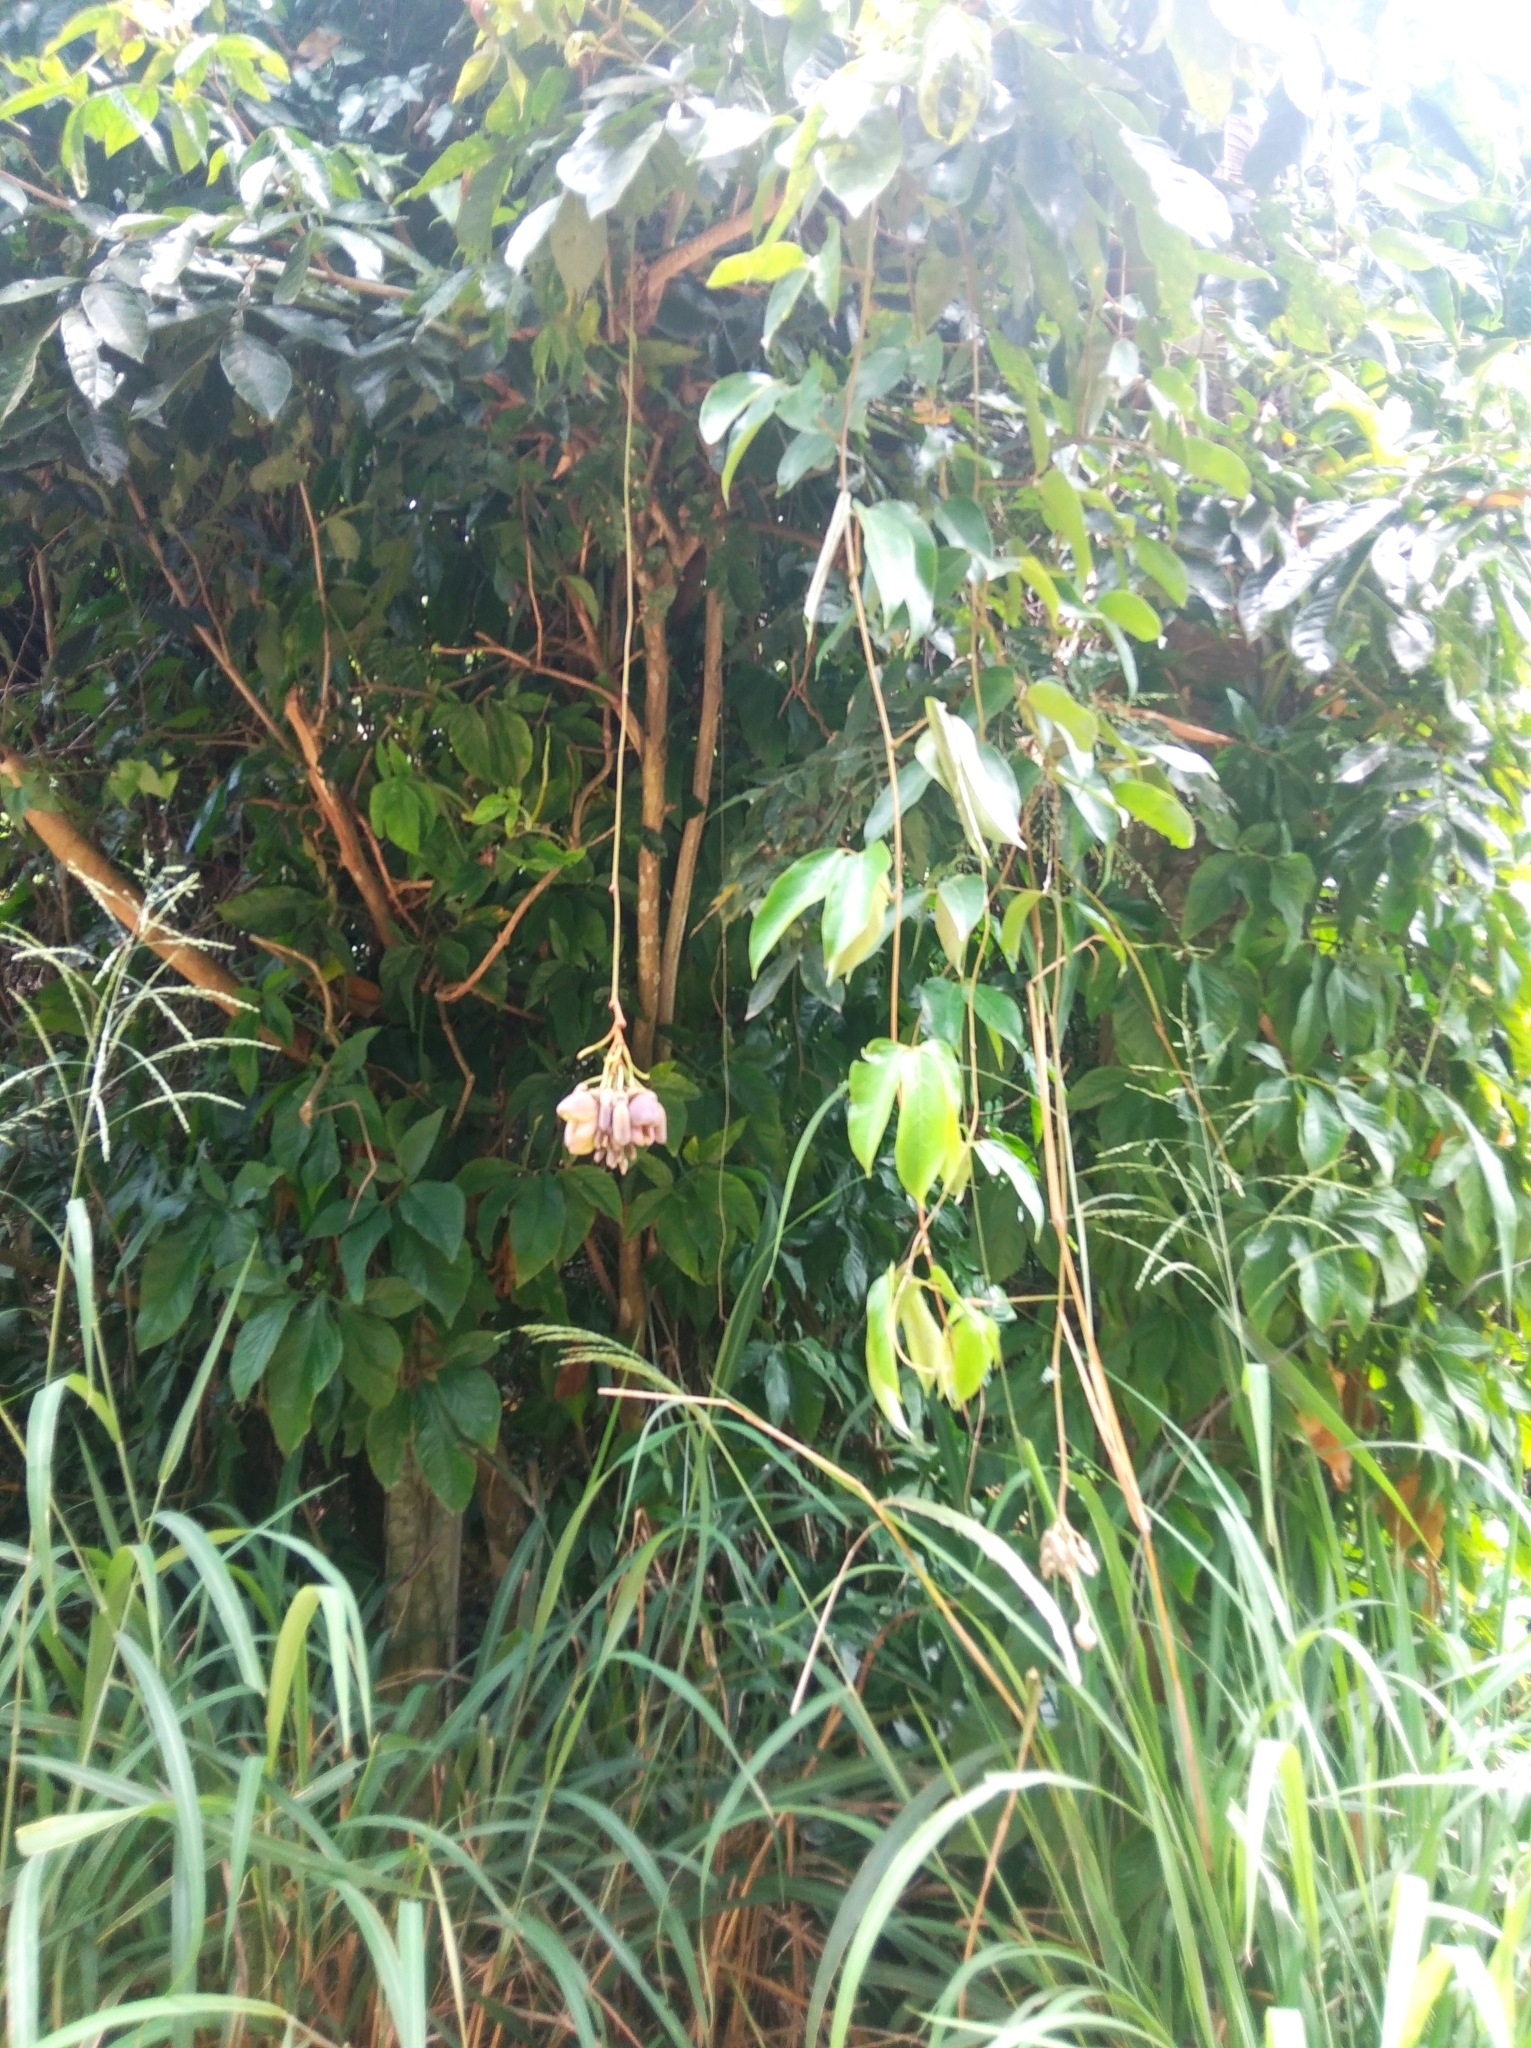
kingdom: Plantae
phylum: Tracheophyta
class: Magnoliopsida
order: Fabales
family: Fabaceae
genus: Mucuna
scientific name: Mucuna urens
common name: Red hamburger bean
